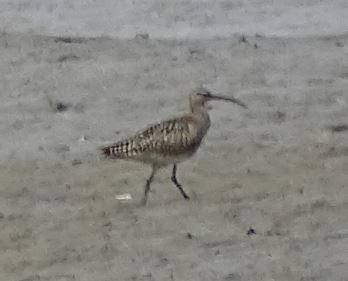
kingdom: Animalia
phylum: Chordata
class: Aves
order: Charadriiformes
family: Scolopacidae
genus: Numenius
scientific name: Numenius phaeopus
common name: Whimbrel
